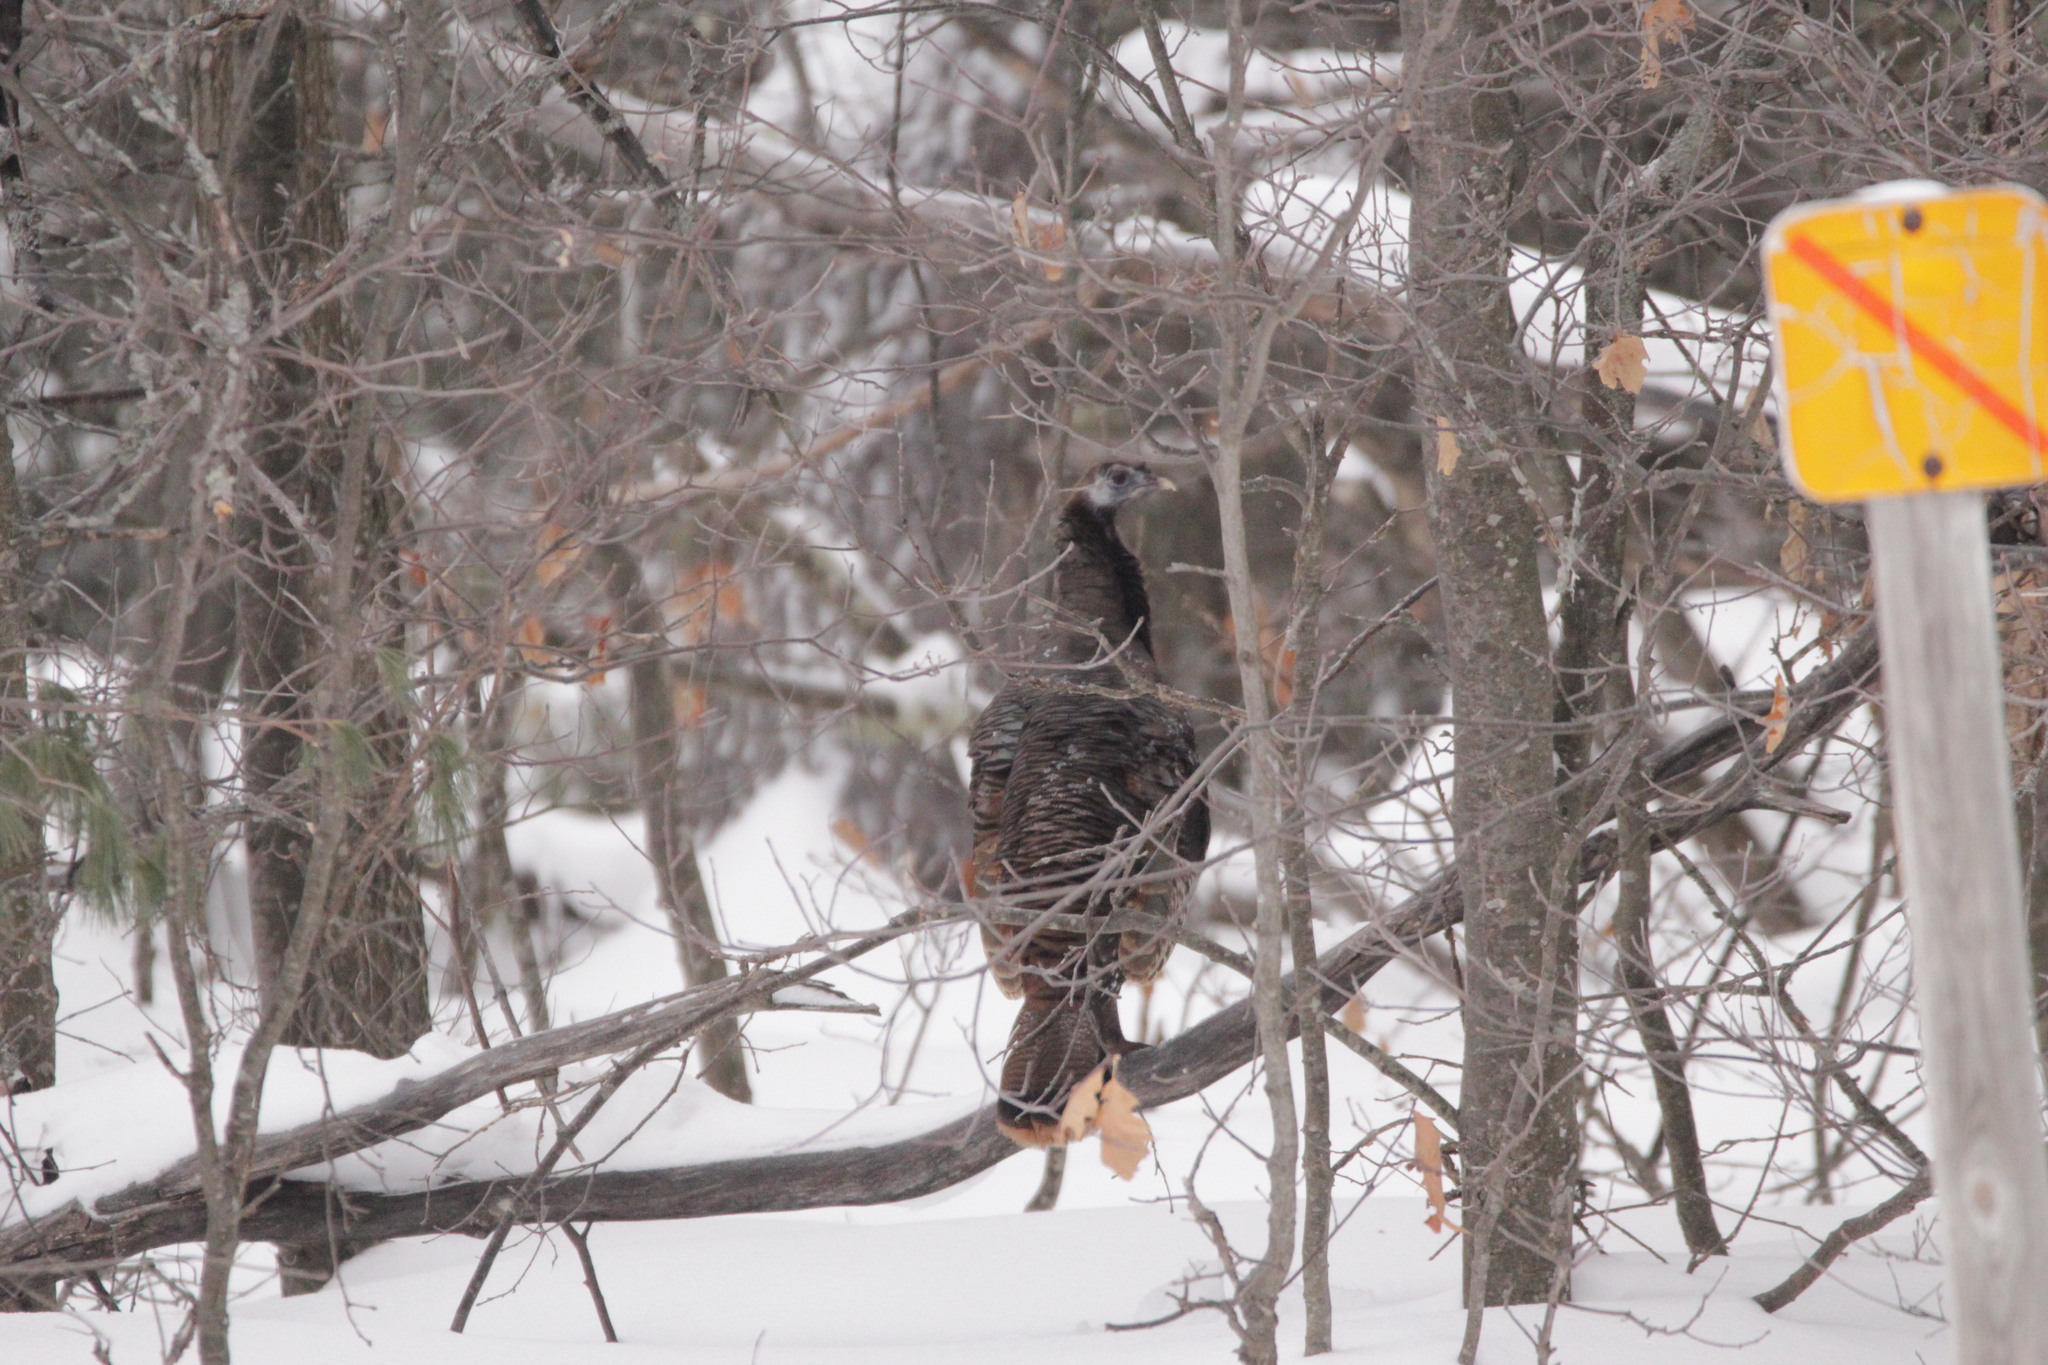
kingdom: Animalia
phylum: Chordata
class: Aves
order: Galliformes
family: Phasianidae
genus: Meleagris
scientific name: Meleagris gallopavo
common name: Wild turkey
